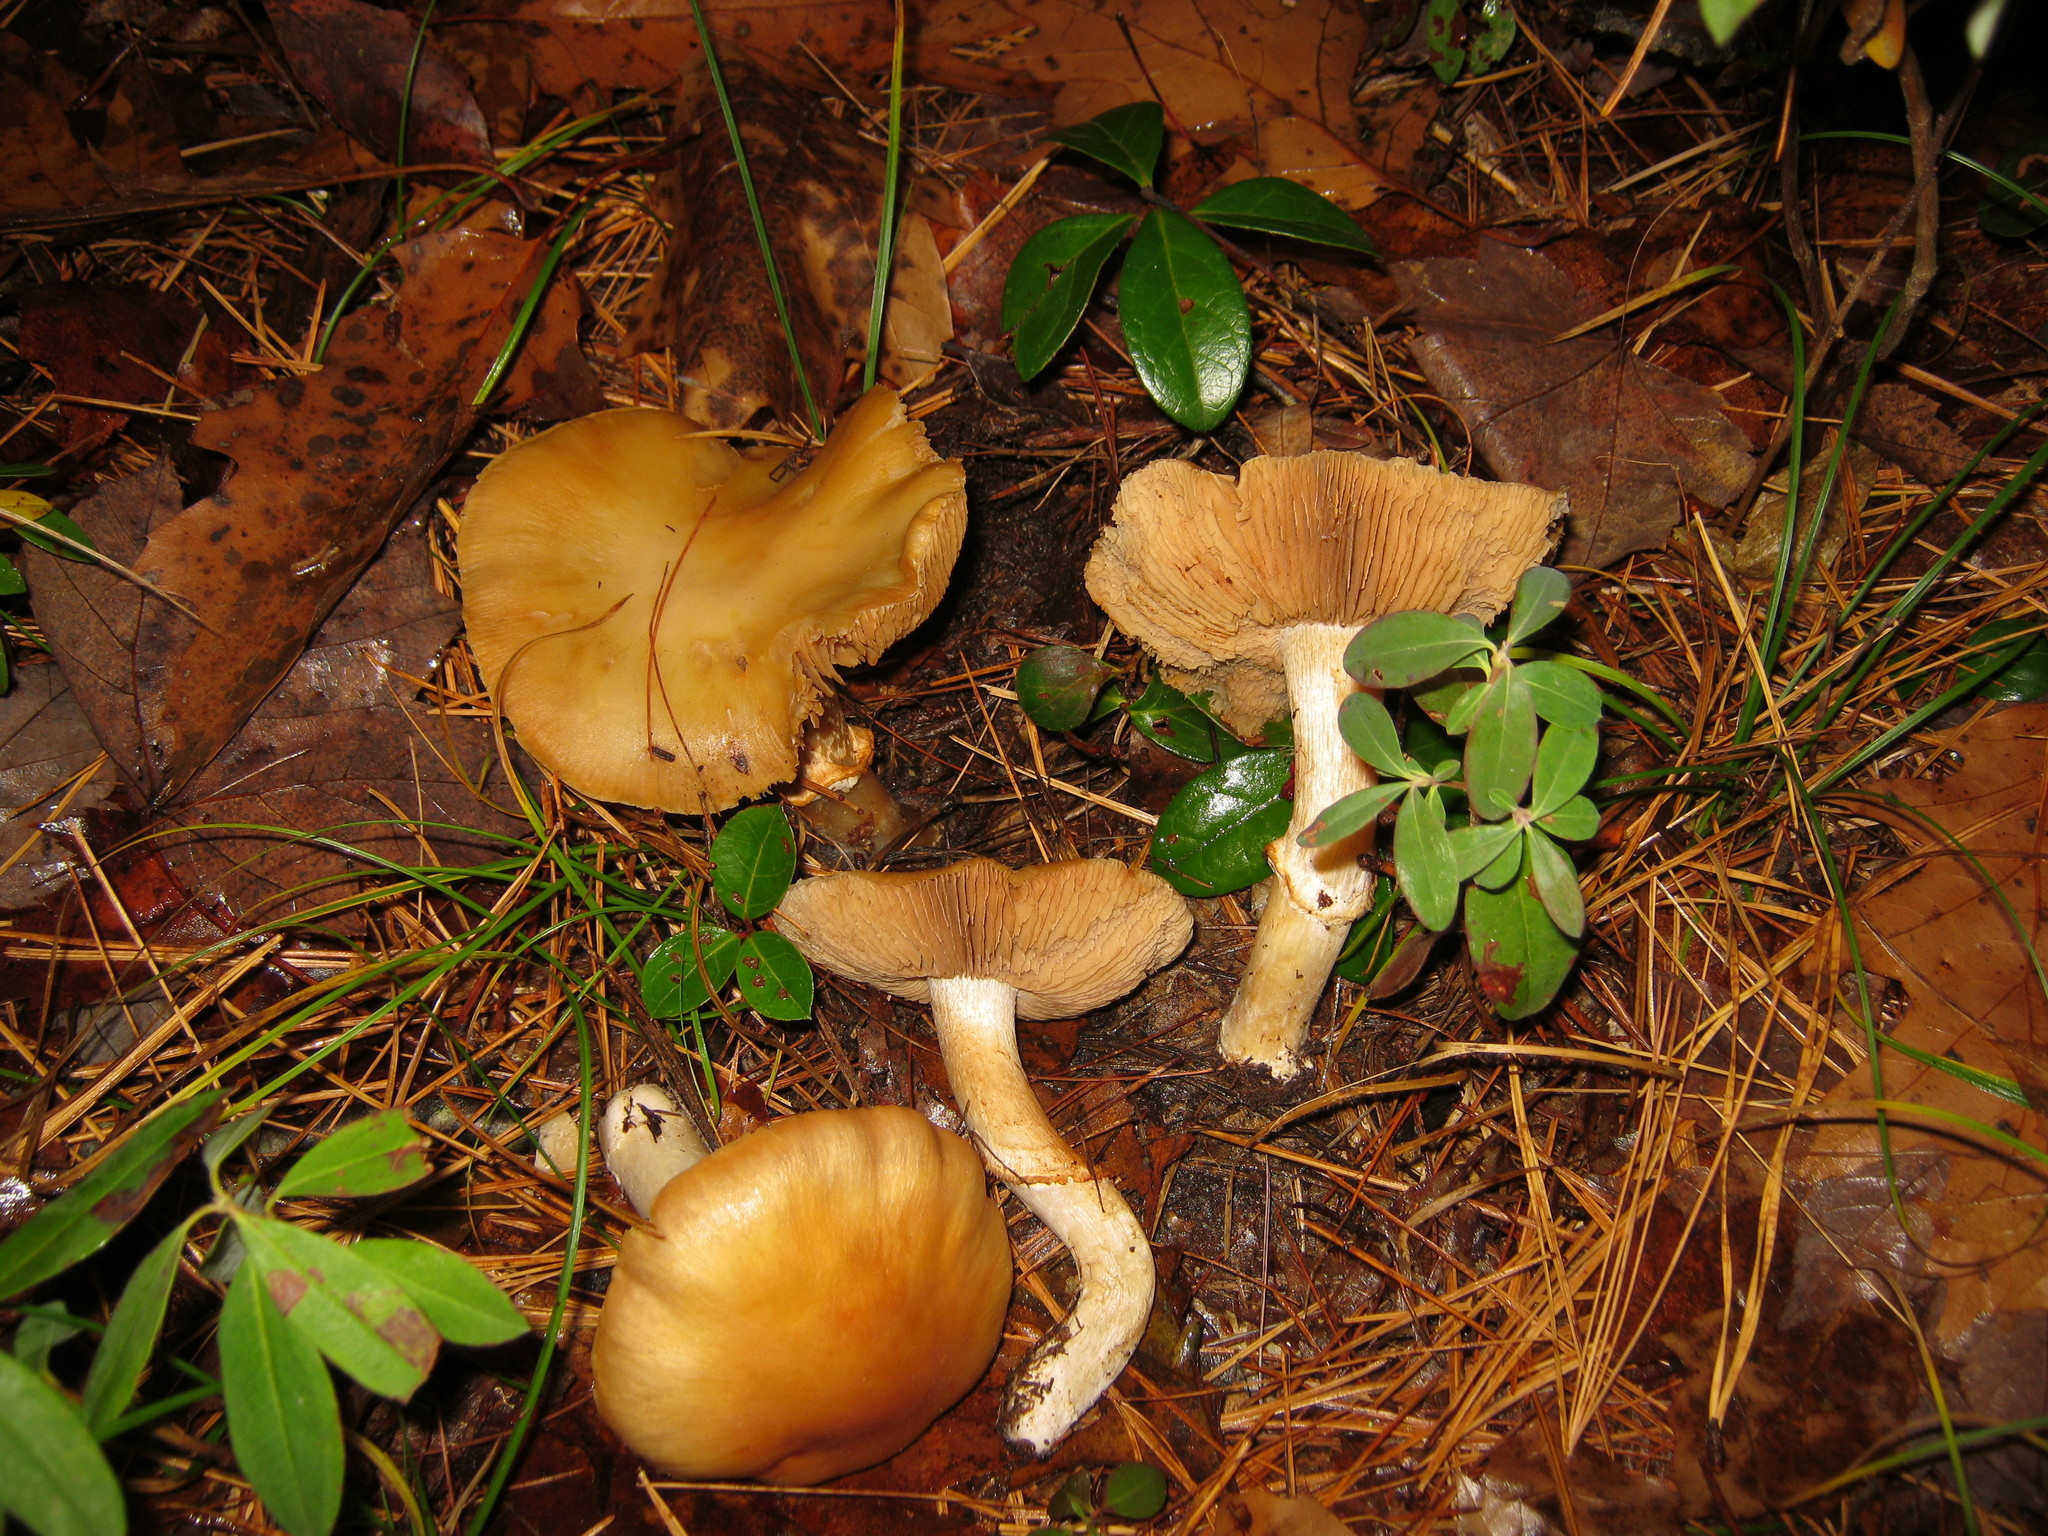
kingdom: Fungi
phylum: Basidiomycota
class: Agaricomycetes
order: Agaricales
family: Cortinariaceae
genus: Cortinarius
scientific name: Cortinarius caperatus
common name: The gypsy
